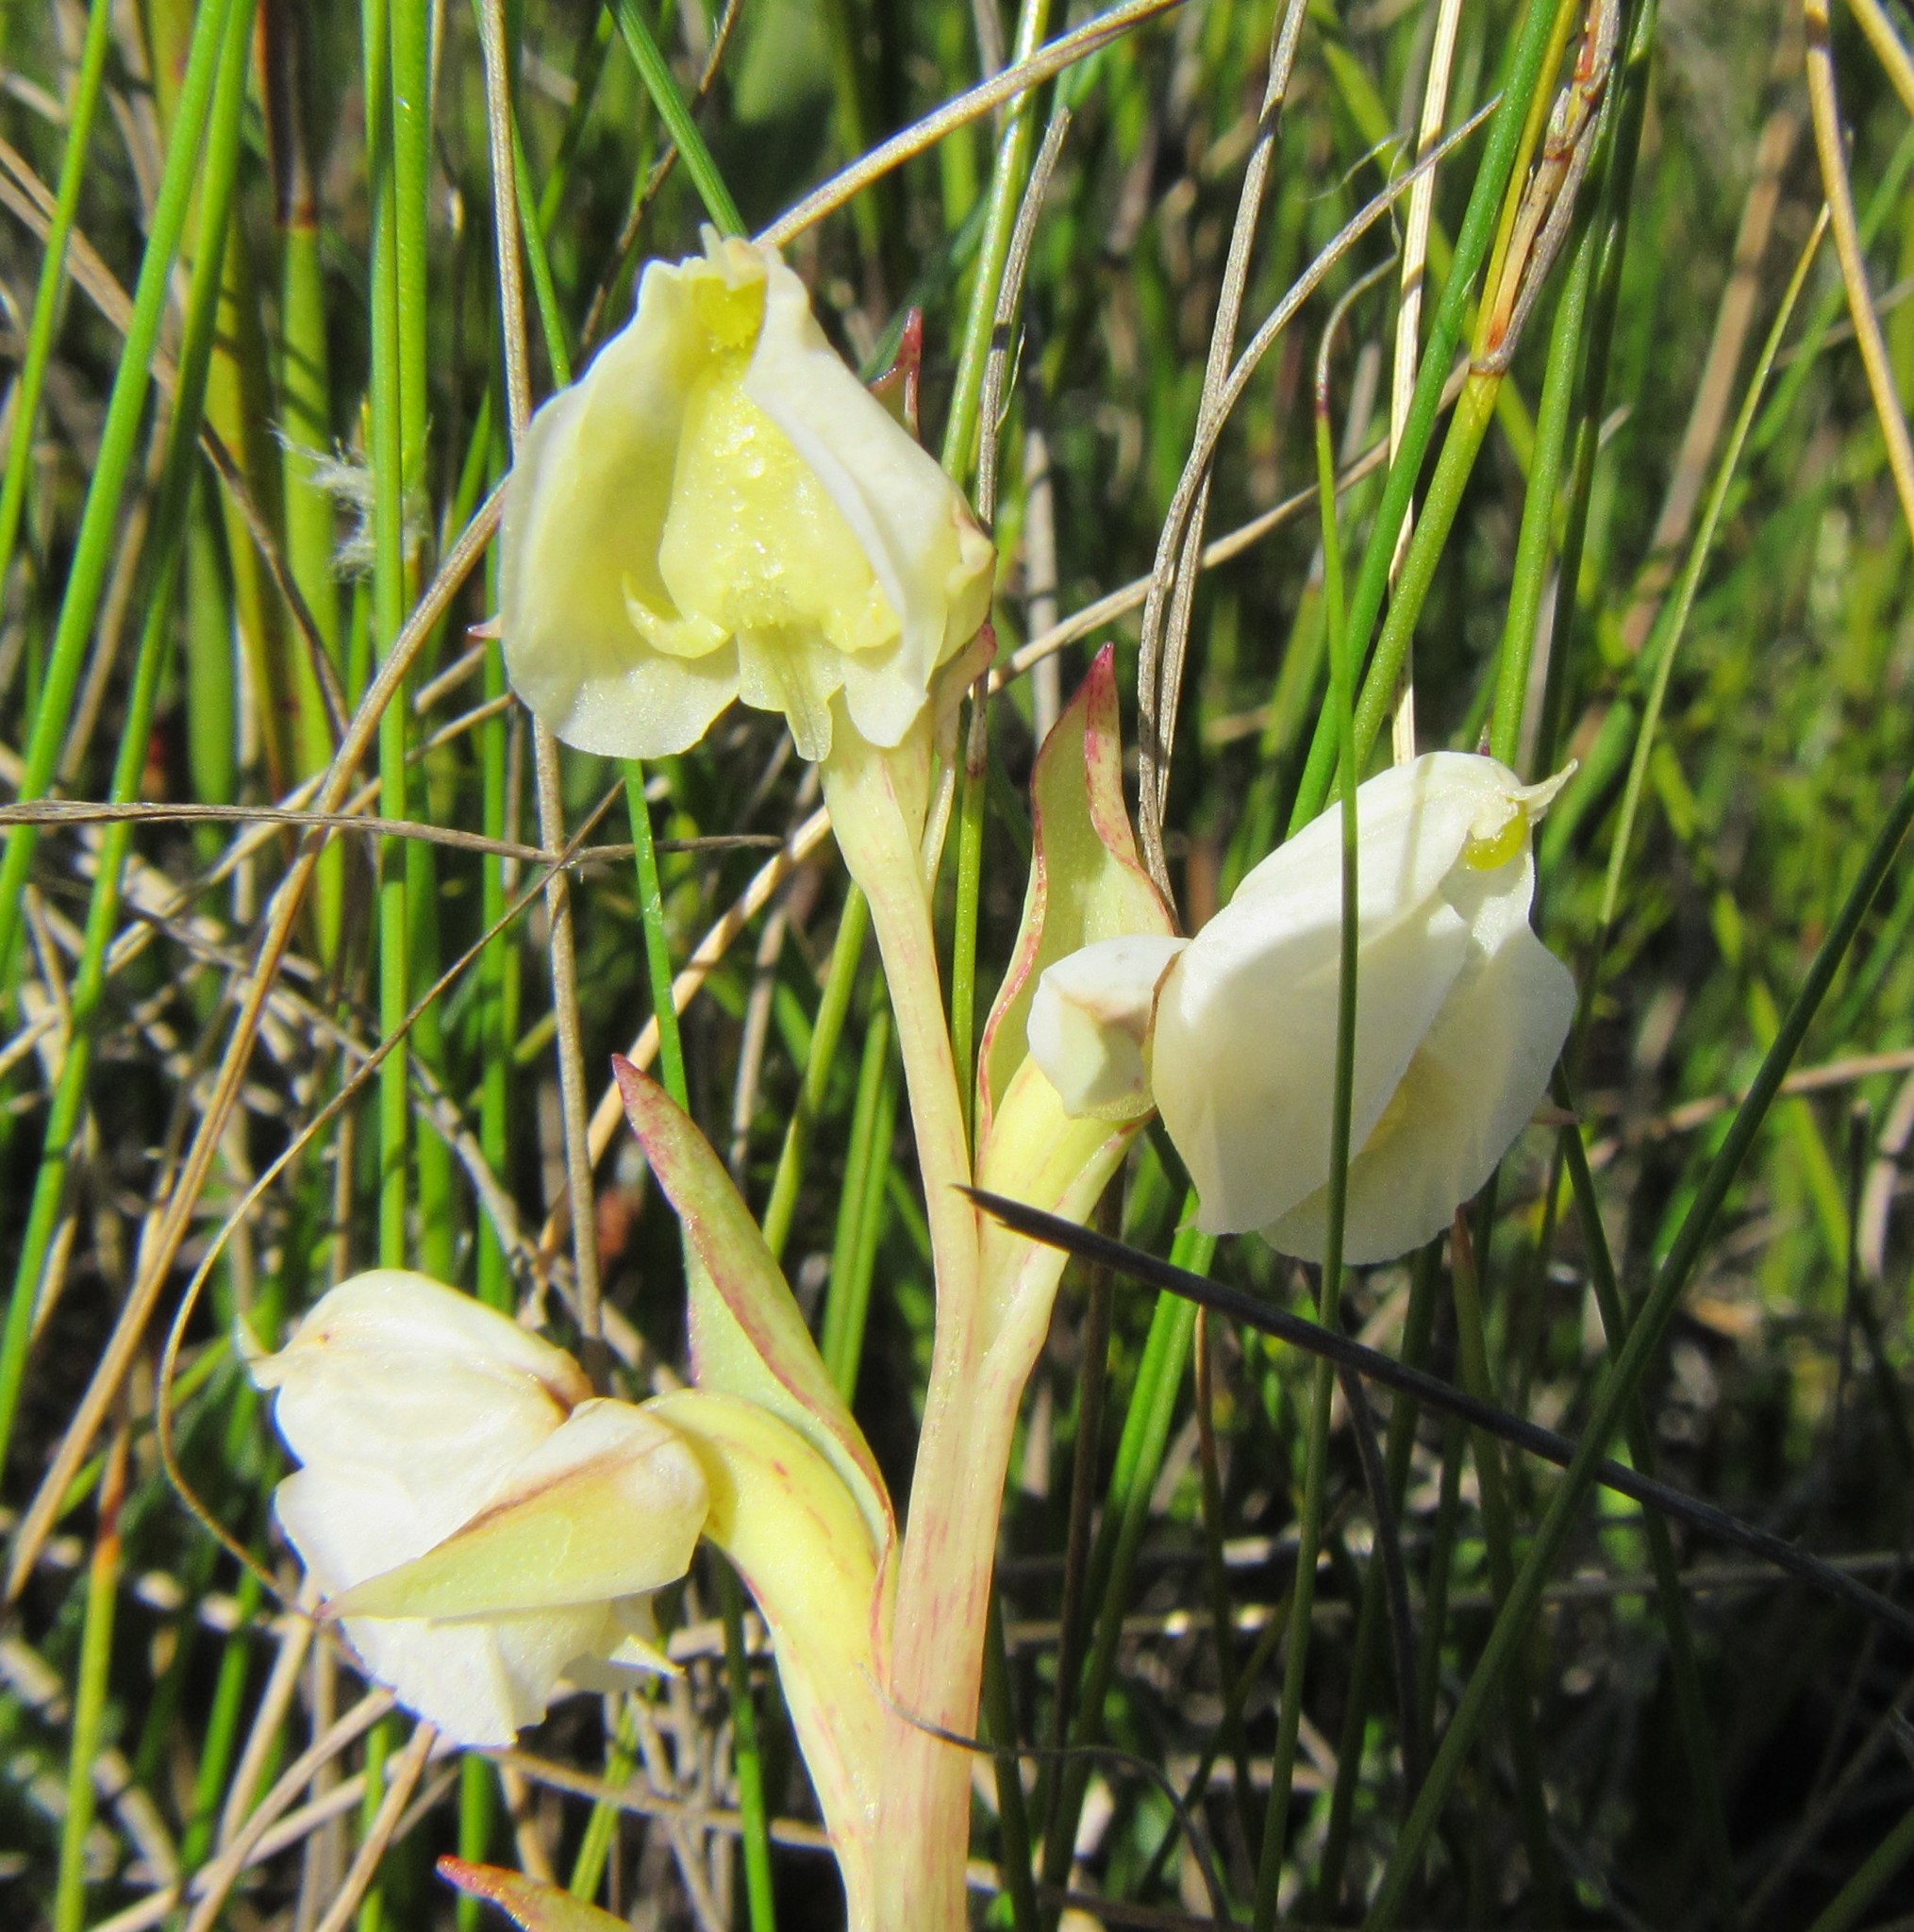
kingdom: Plantae
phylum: Tracheophyta
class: Liliopsida
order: Asparagales
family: Orchidaceae
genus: Pterygodium
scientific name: Pterygodium catholicum
